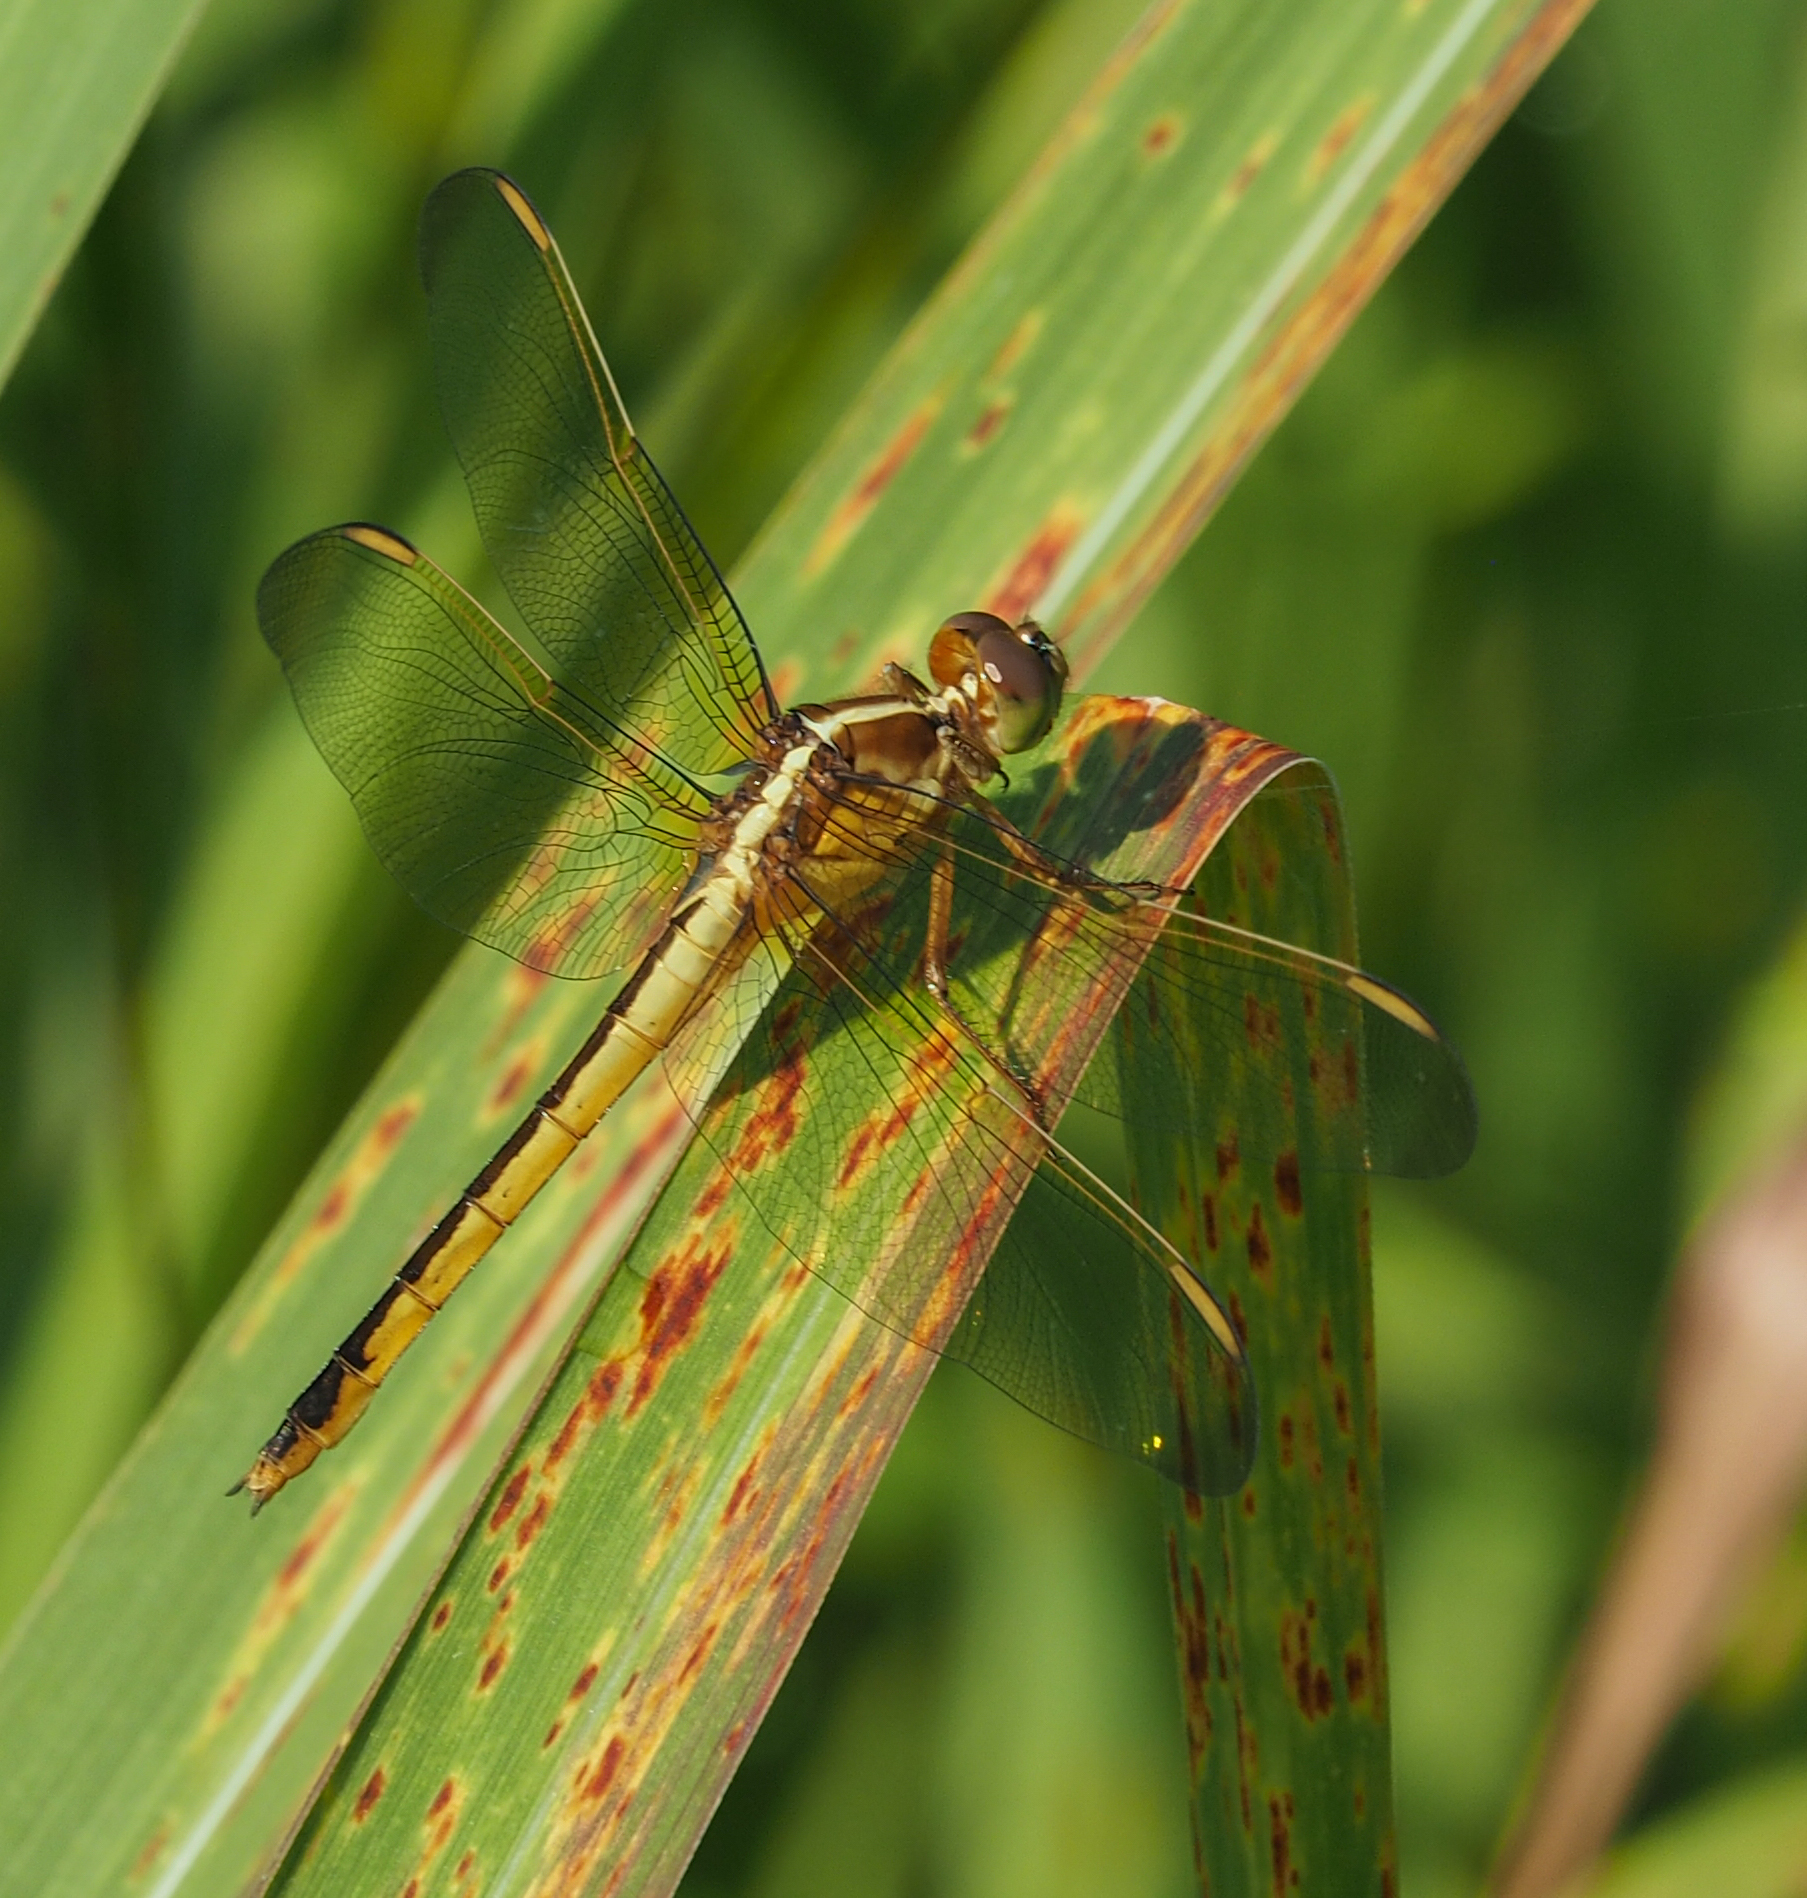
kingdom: Animalia
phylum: Arthropoda
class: Insecta
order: Odonata
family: Libellulidae
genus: Libellula
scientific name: Libellula needhami
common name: Needham's skimmer
